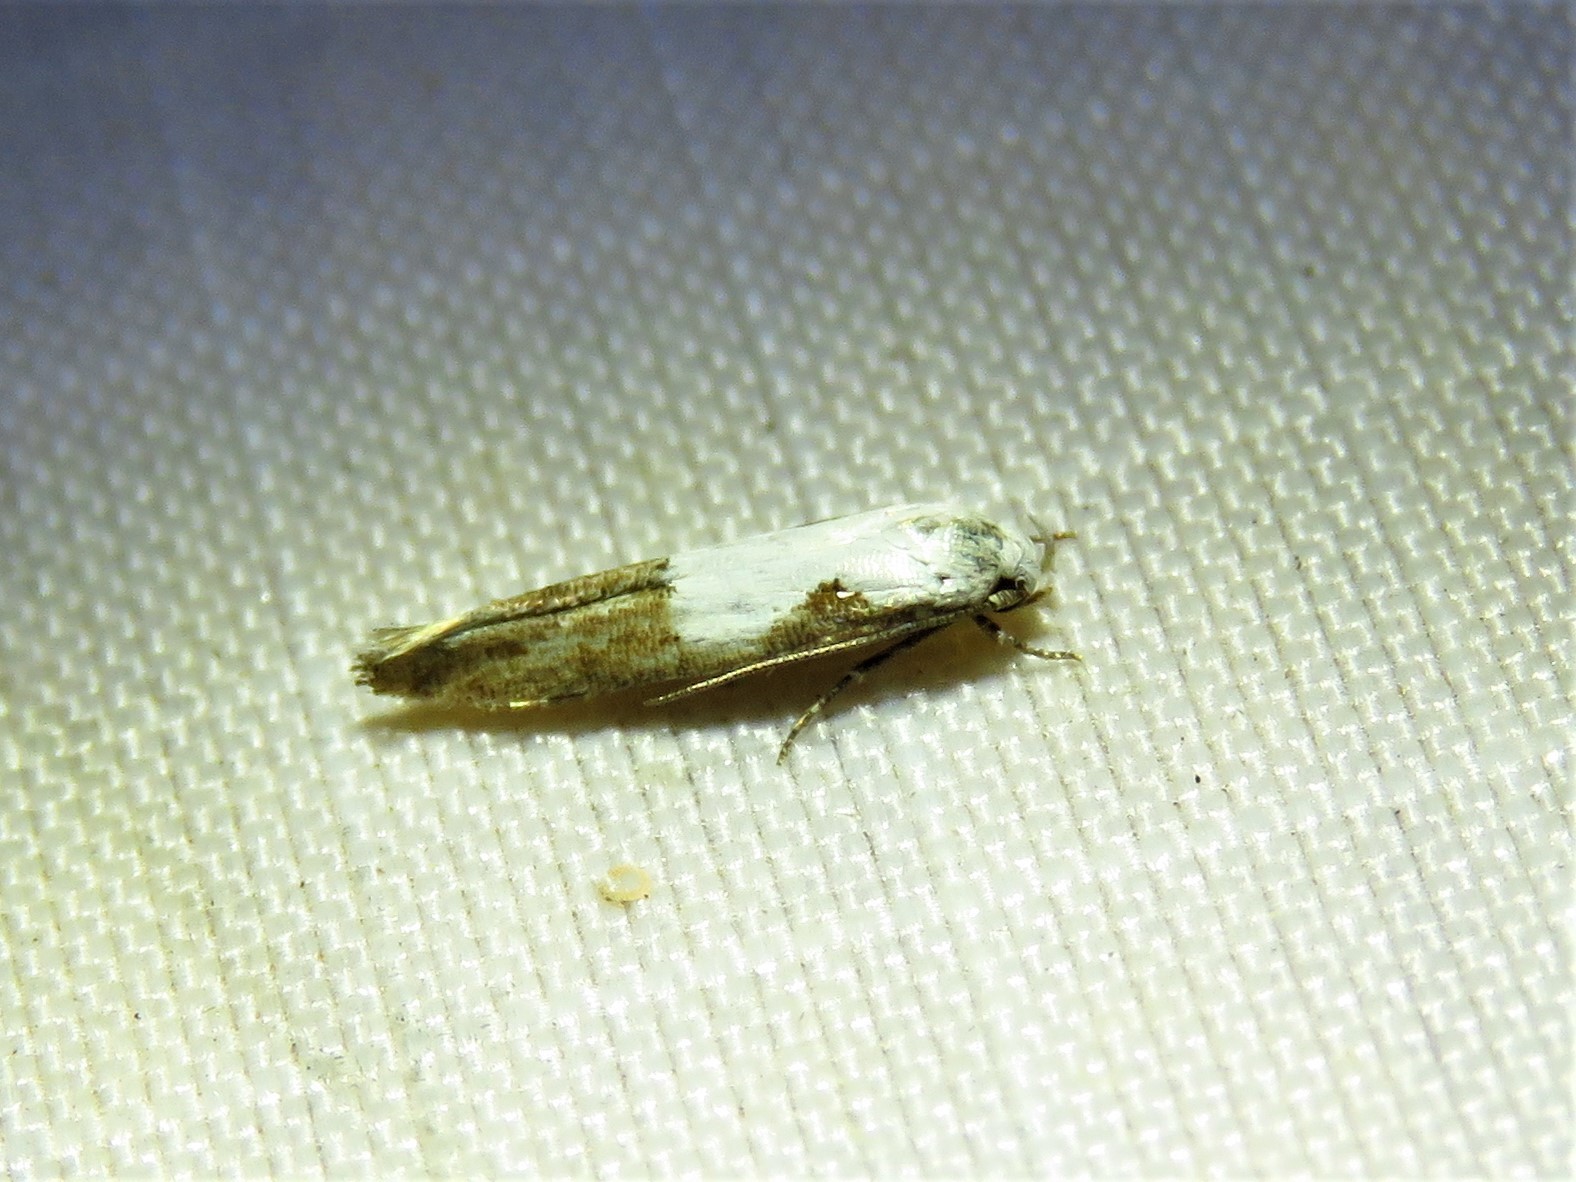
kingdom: Animalia
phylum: Arthropoda
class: Insecta
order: Lepidoptera
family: Momphidae
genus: Mompha
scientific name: Mompha circumscriptella
